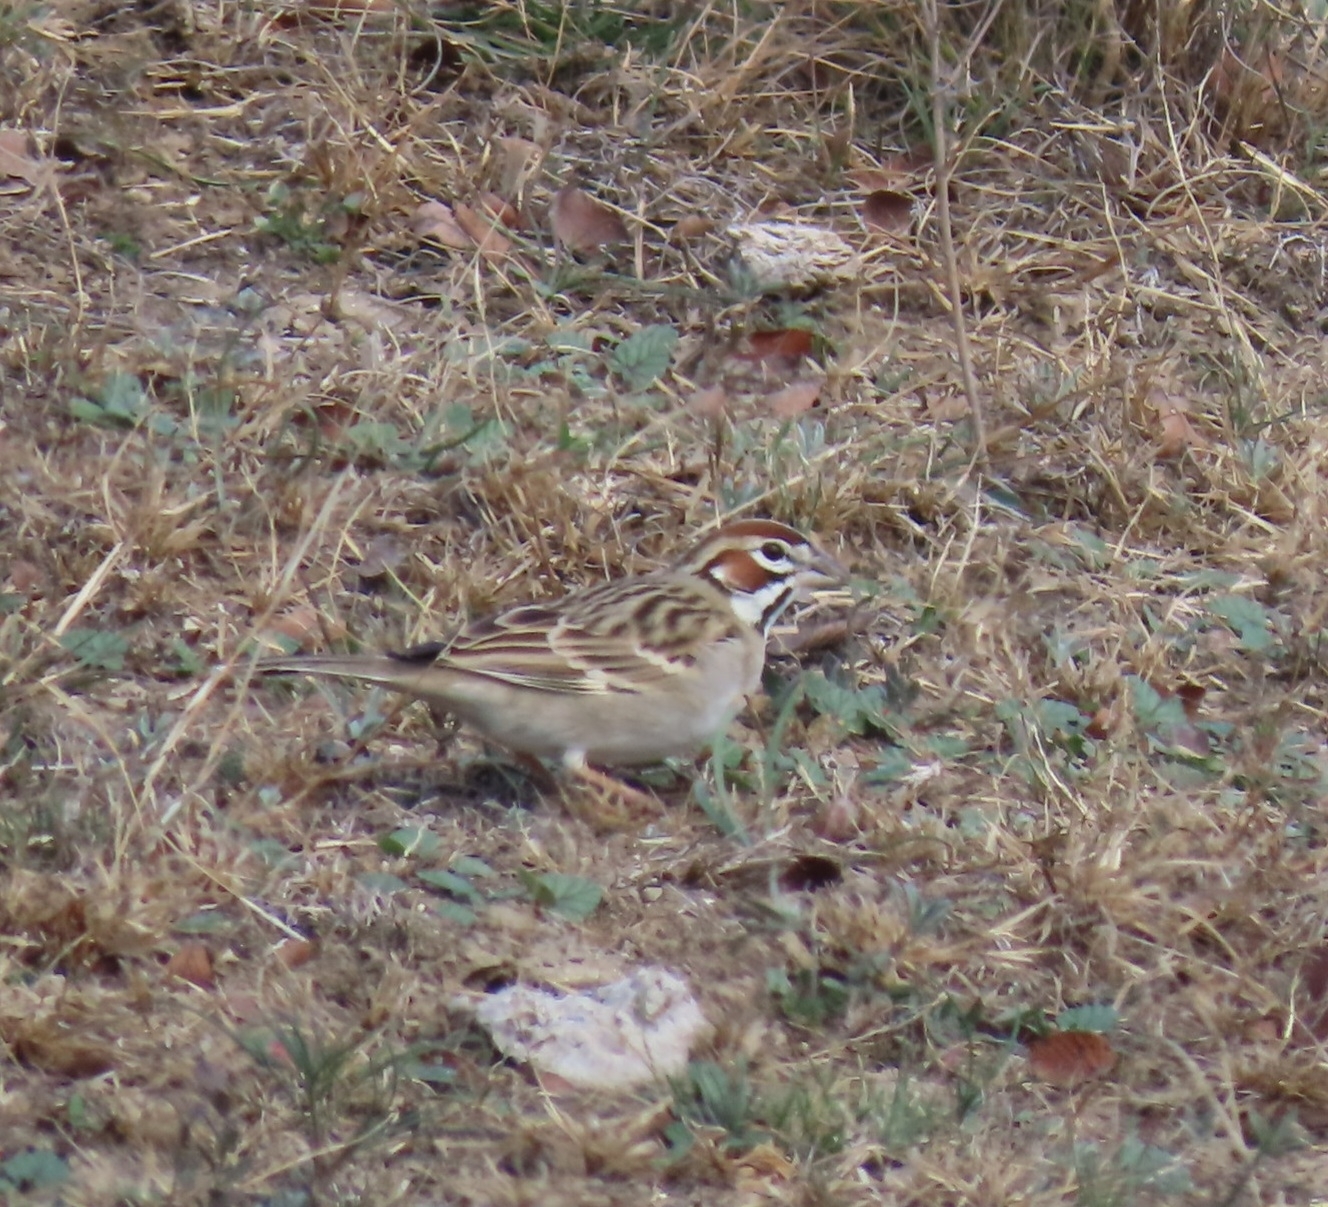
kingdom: Animalia
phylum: Chordata
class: Aves
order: Passeriformes
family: Passerellidae
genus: Chondestes
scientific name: Chondestes grammacus
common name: Lark sparrow
